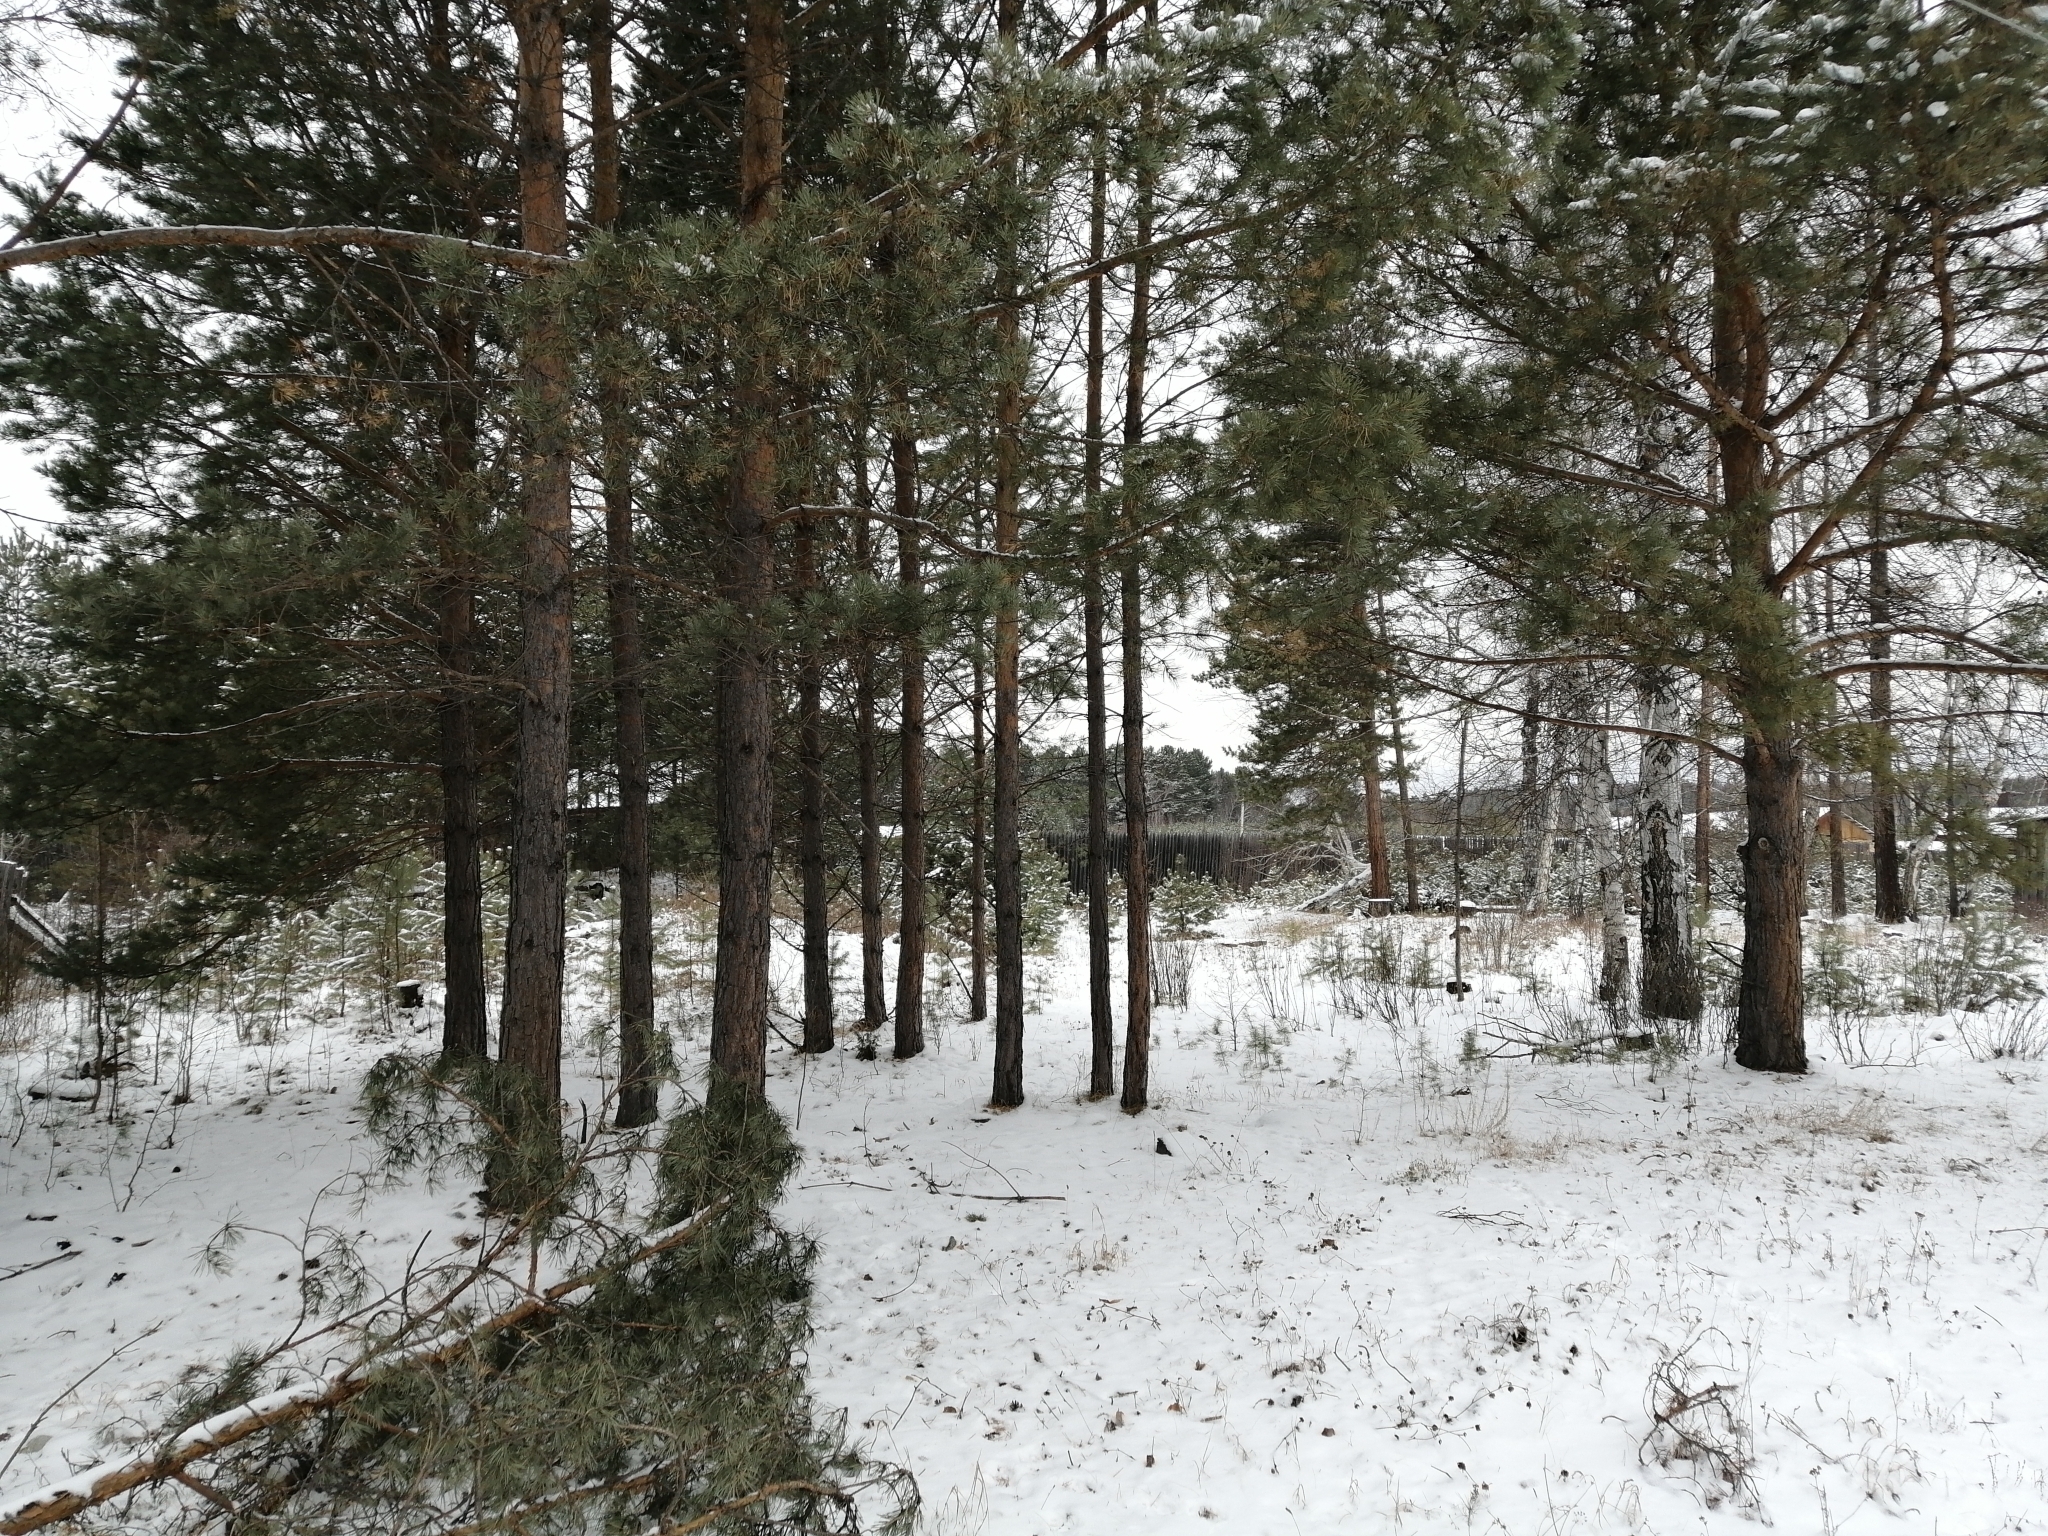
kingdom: Plantae
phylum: Tracheophyta
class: Pinopsida
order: Pinales
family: Pinaceae
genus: Pinus
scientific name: Pinus sylvestris
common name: Scots pine
